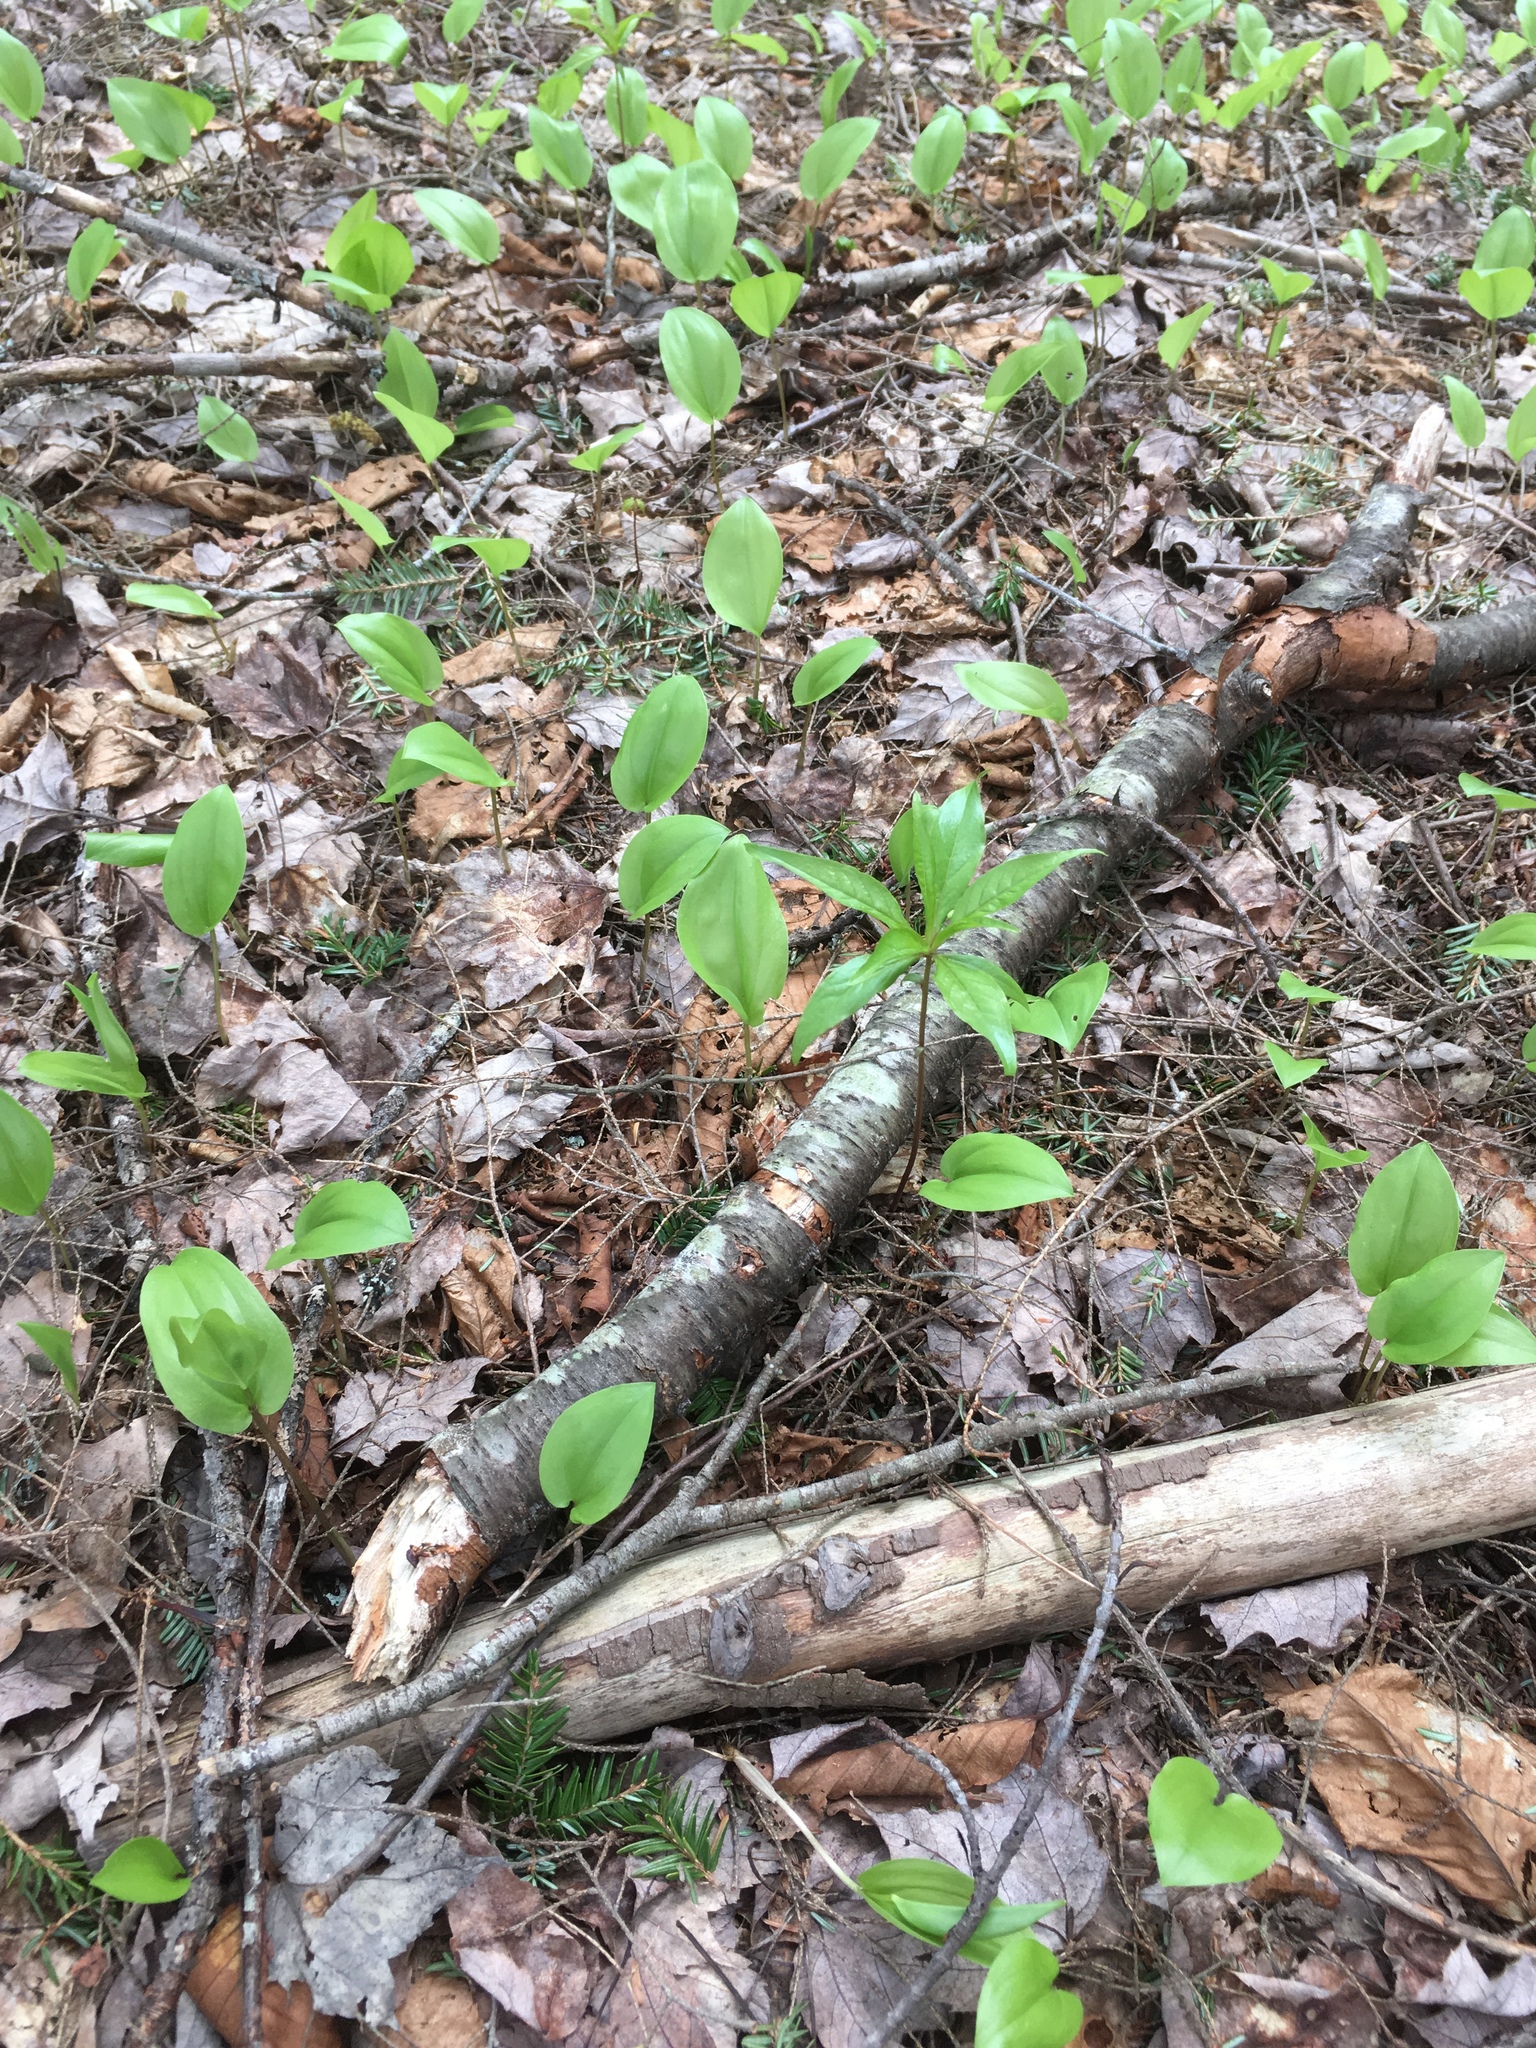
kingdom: Plantae
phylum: Tracheophyta
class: Magnoliopsida
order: Ericales
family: Primulaceae
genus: Lysimachia
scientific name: Lysimachia borealis
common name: American starflower
